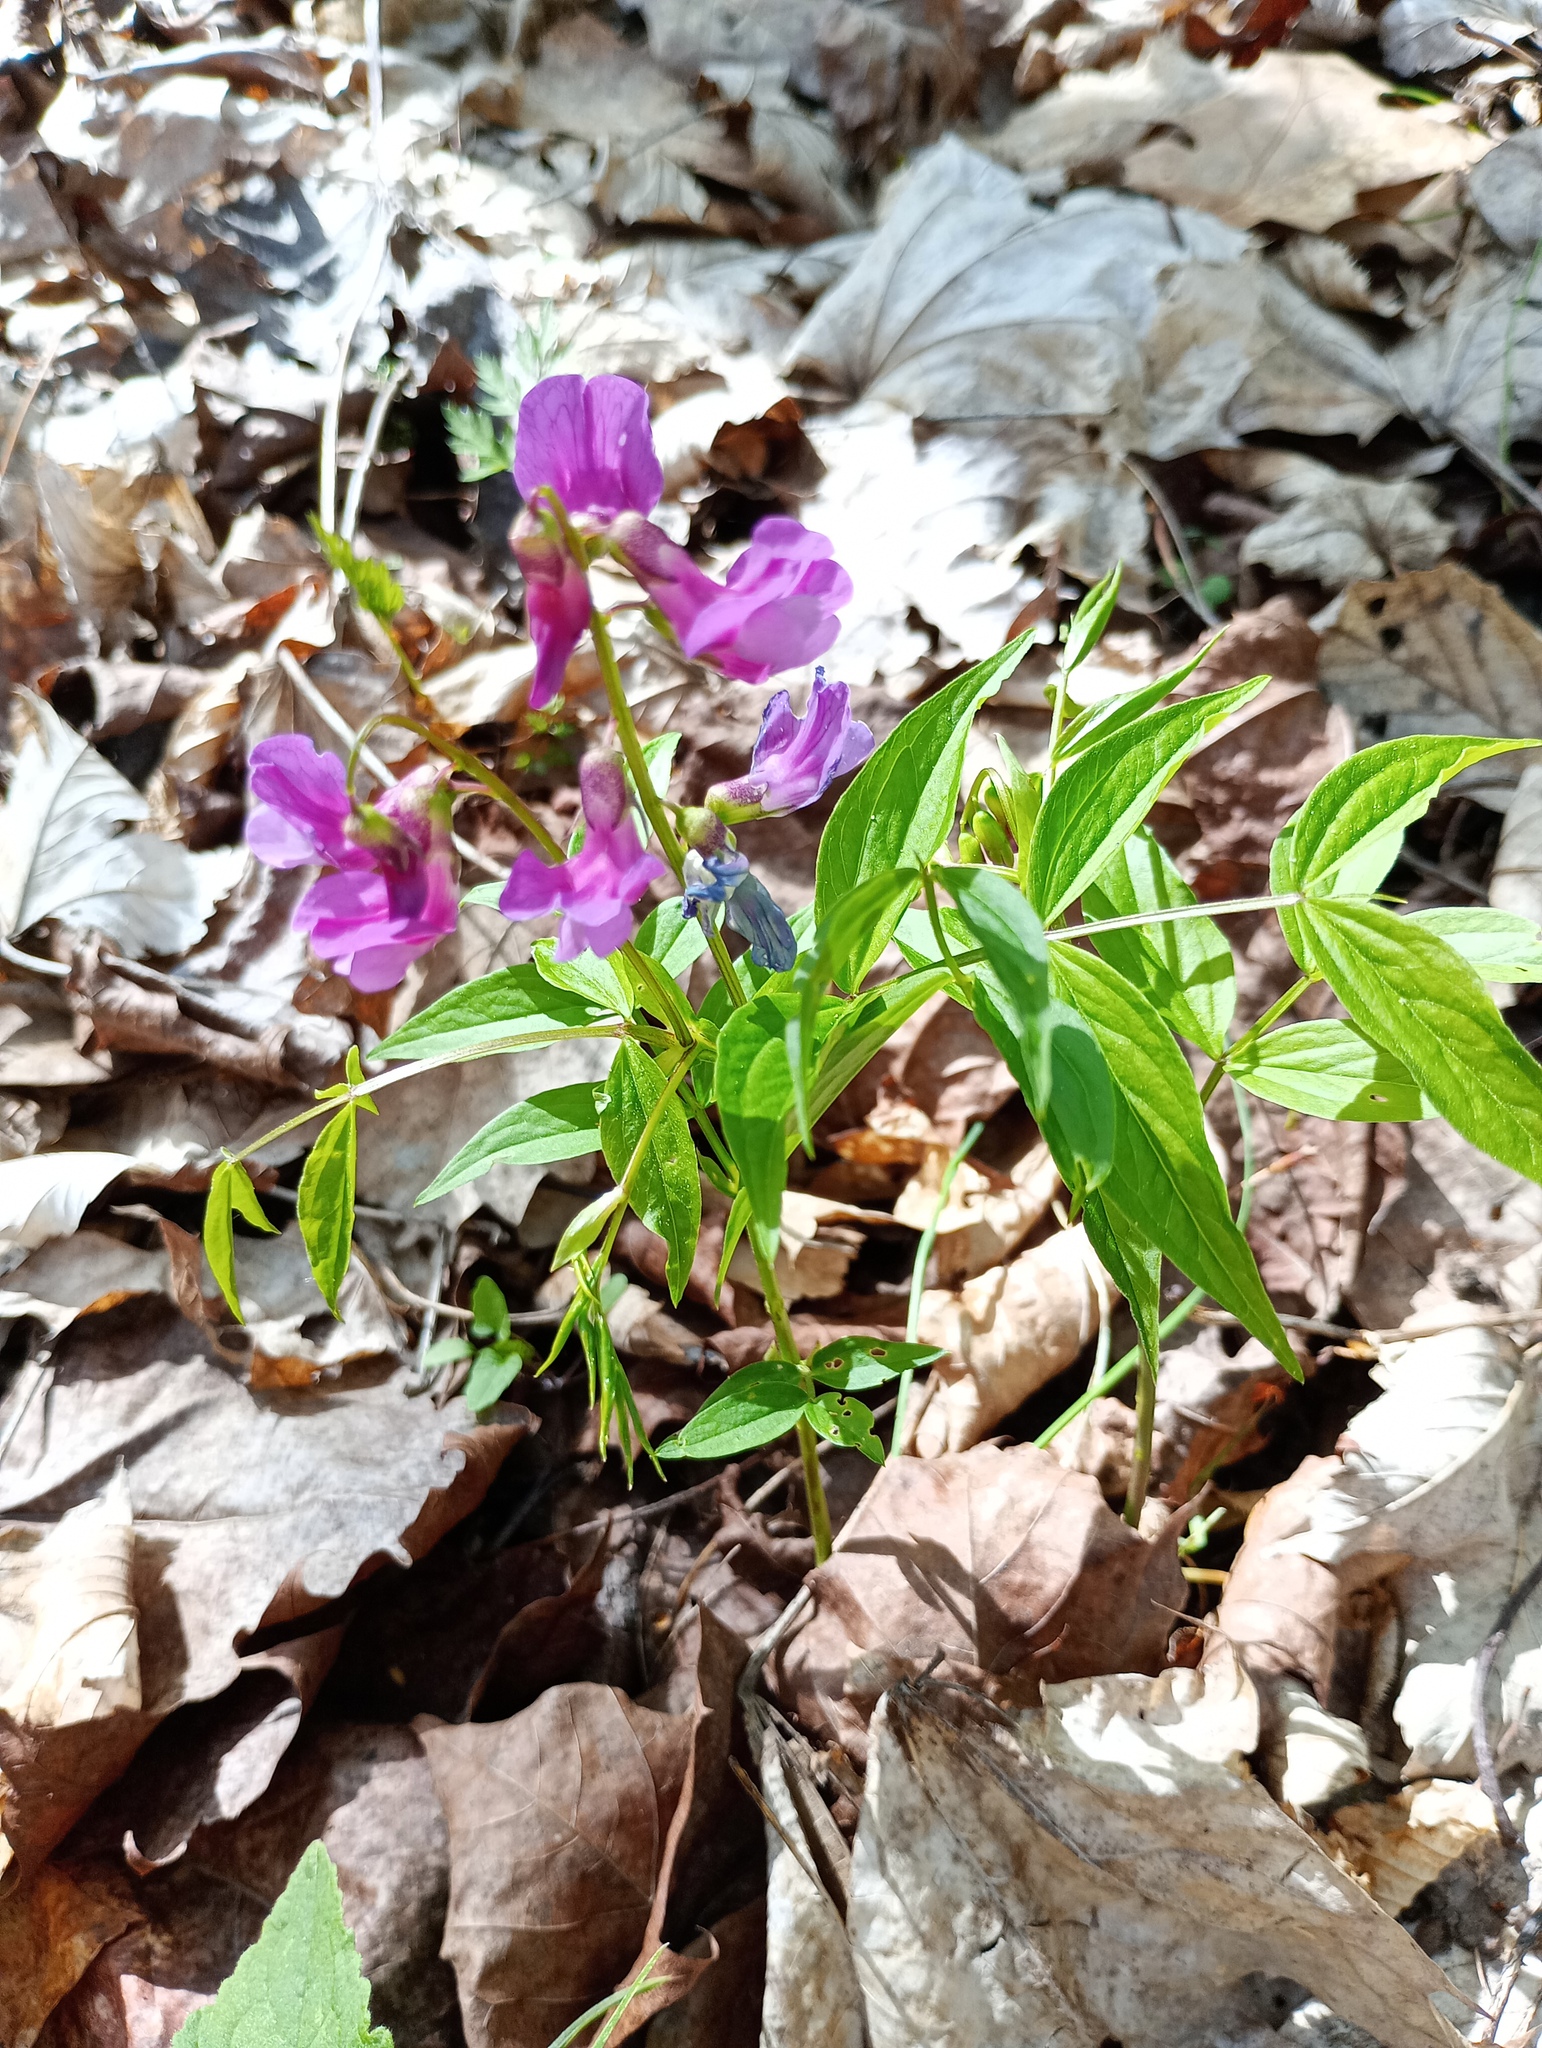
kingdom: Plantae
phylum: Tracheophyta
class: Magnoliopsida
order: Fabales
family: Fabaceae
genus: Lathyrus
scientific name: Lathyrus vernus
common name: Spring pea
